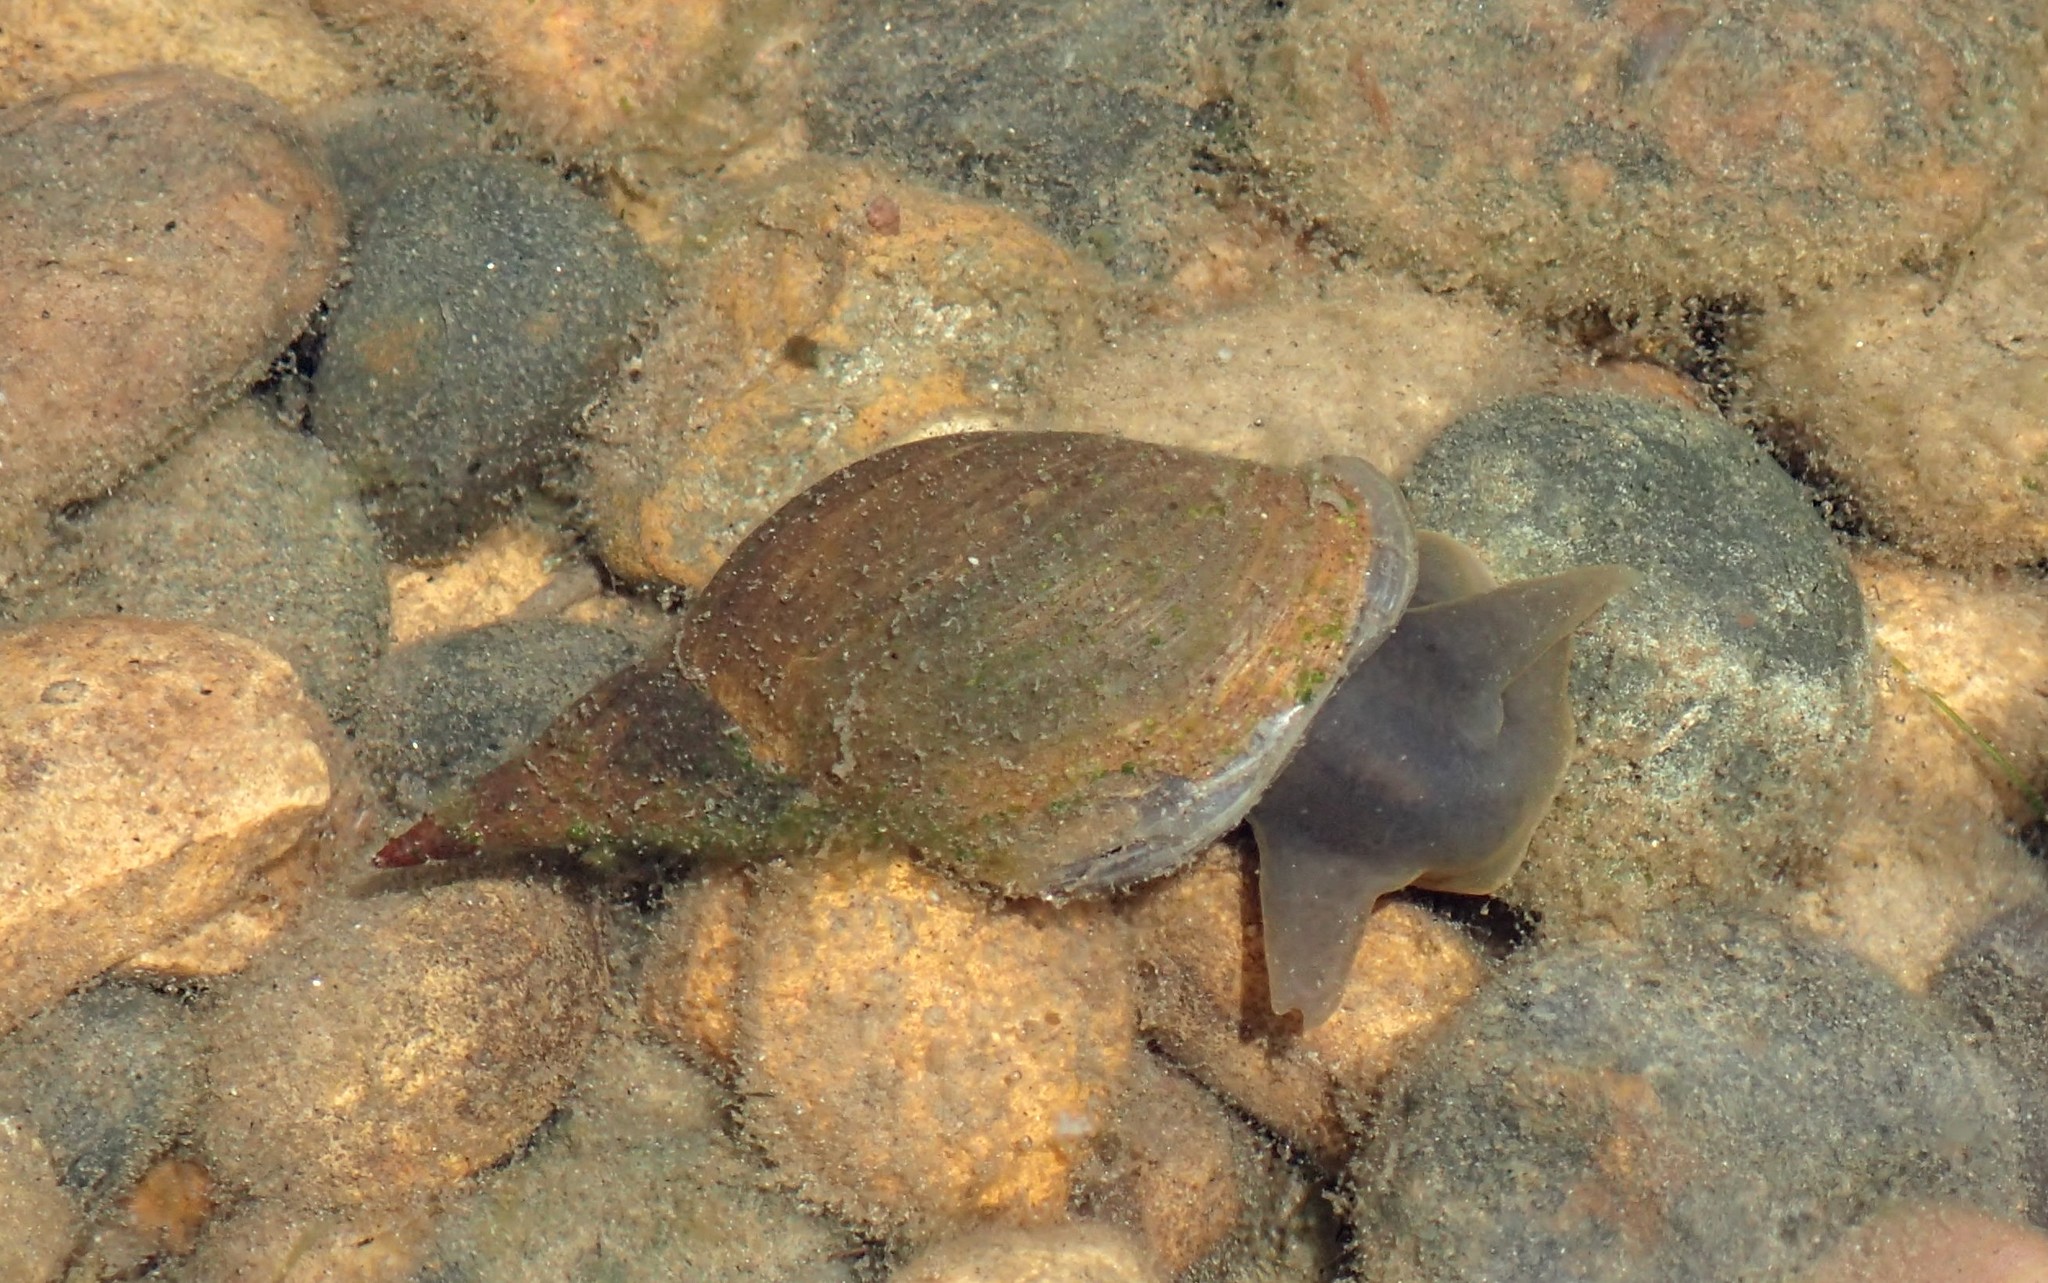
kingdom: Animalia
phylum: Mollusca
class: Gastropoda
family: Lymnaeidae
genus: Lymnaea
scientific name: Lymnaea stagnalis
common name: Great pond snail
